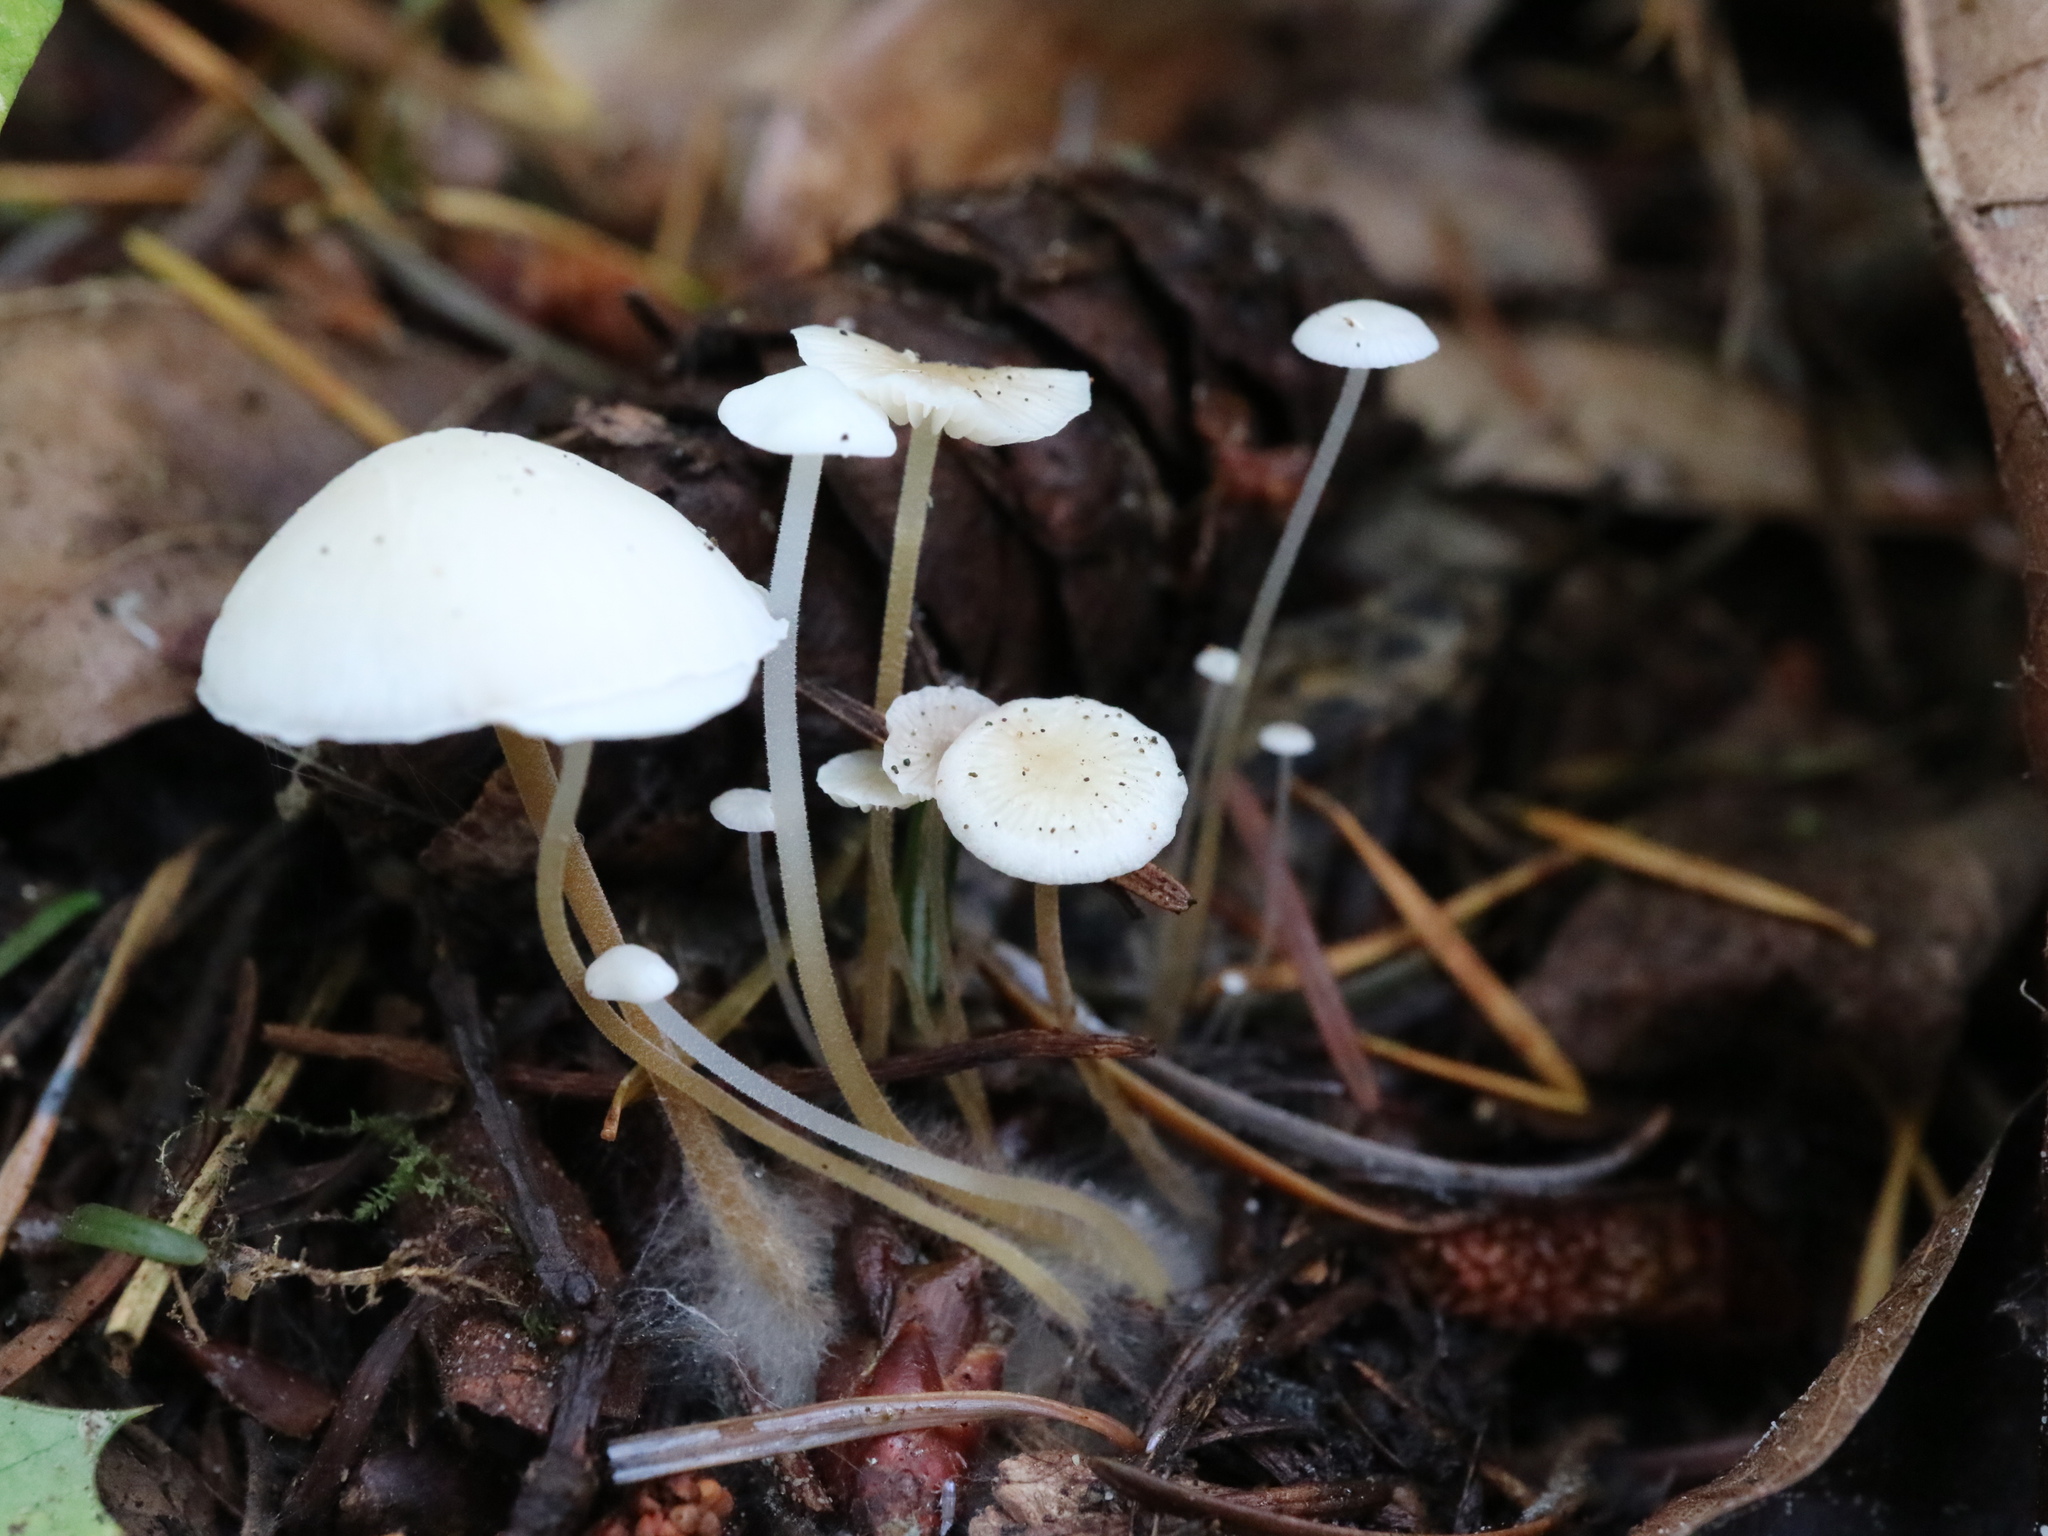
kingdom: Fungi
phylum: Basidiomycota
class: Agaricomycetes
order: Agaricales
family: Physalacriaceae
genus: Strobilurus
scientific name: Strobilurus trullisatus
